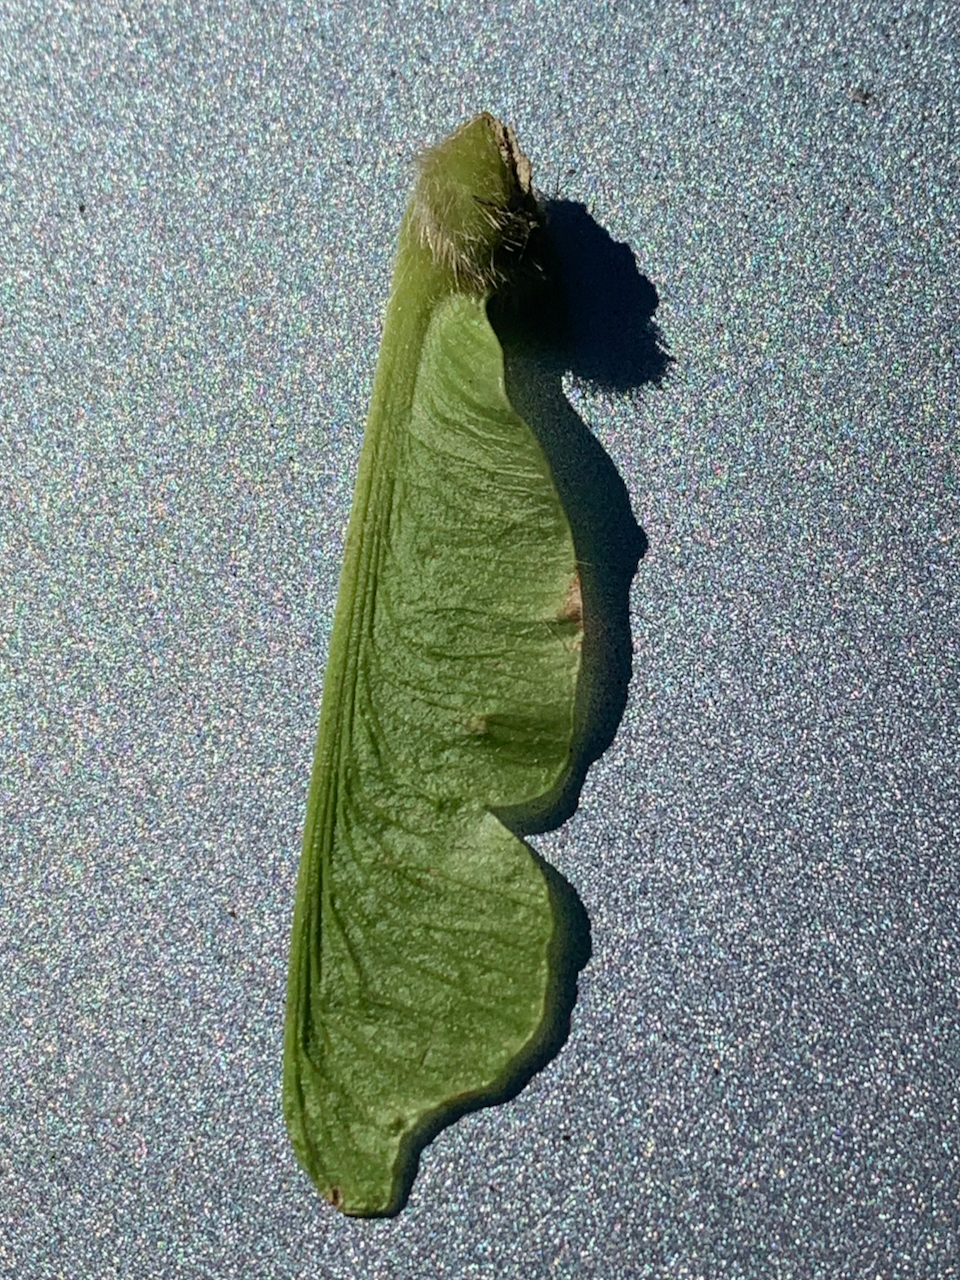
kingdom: Plantae
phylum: Tracheophyta
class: Magnoliopsida
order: Sapindales
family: Sapindaceae
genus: Acer
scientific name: Acer macrophyllum
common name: Oregon maple
